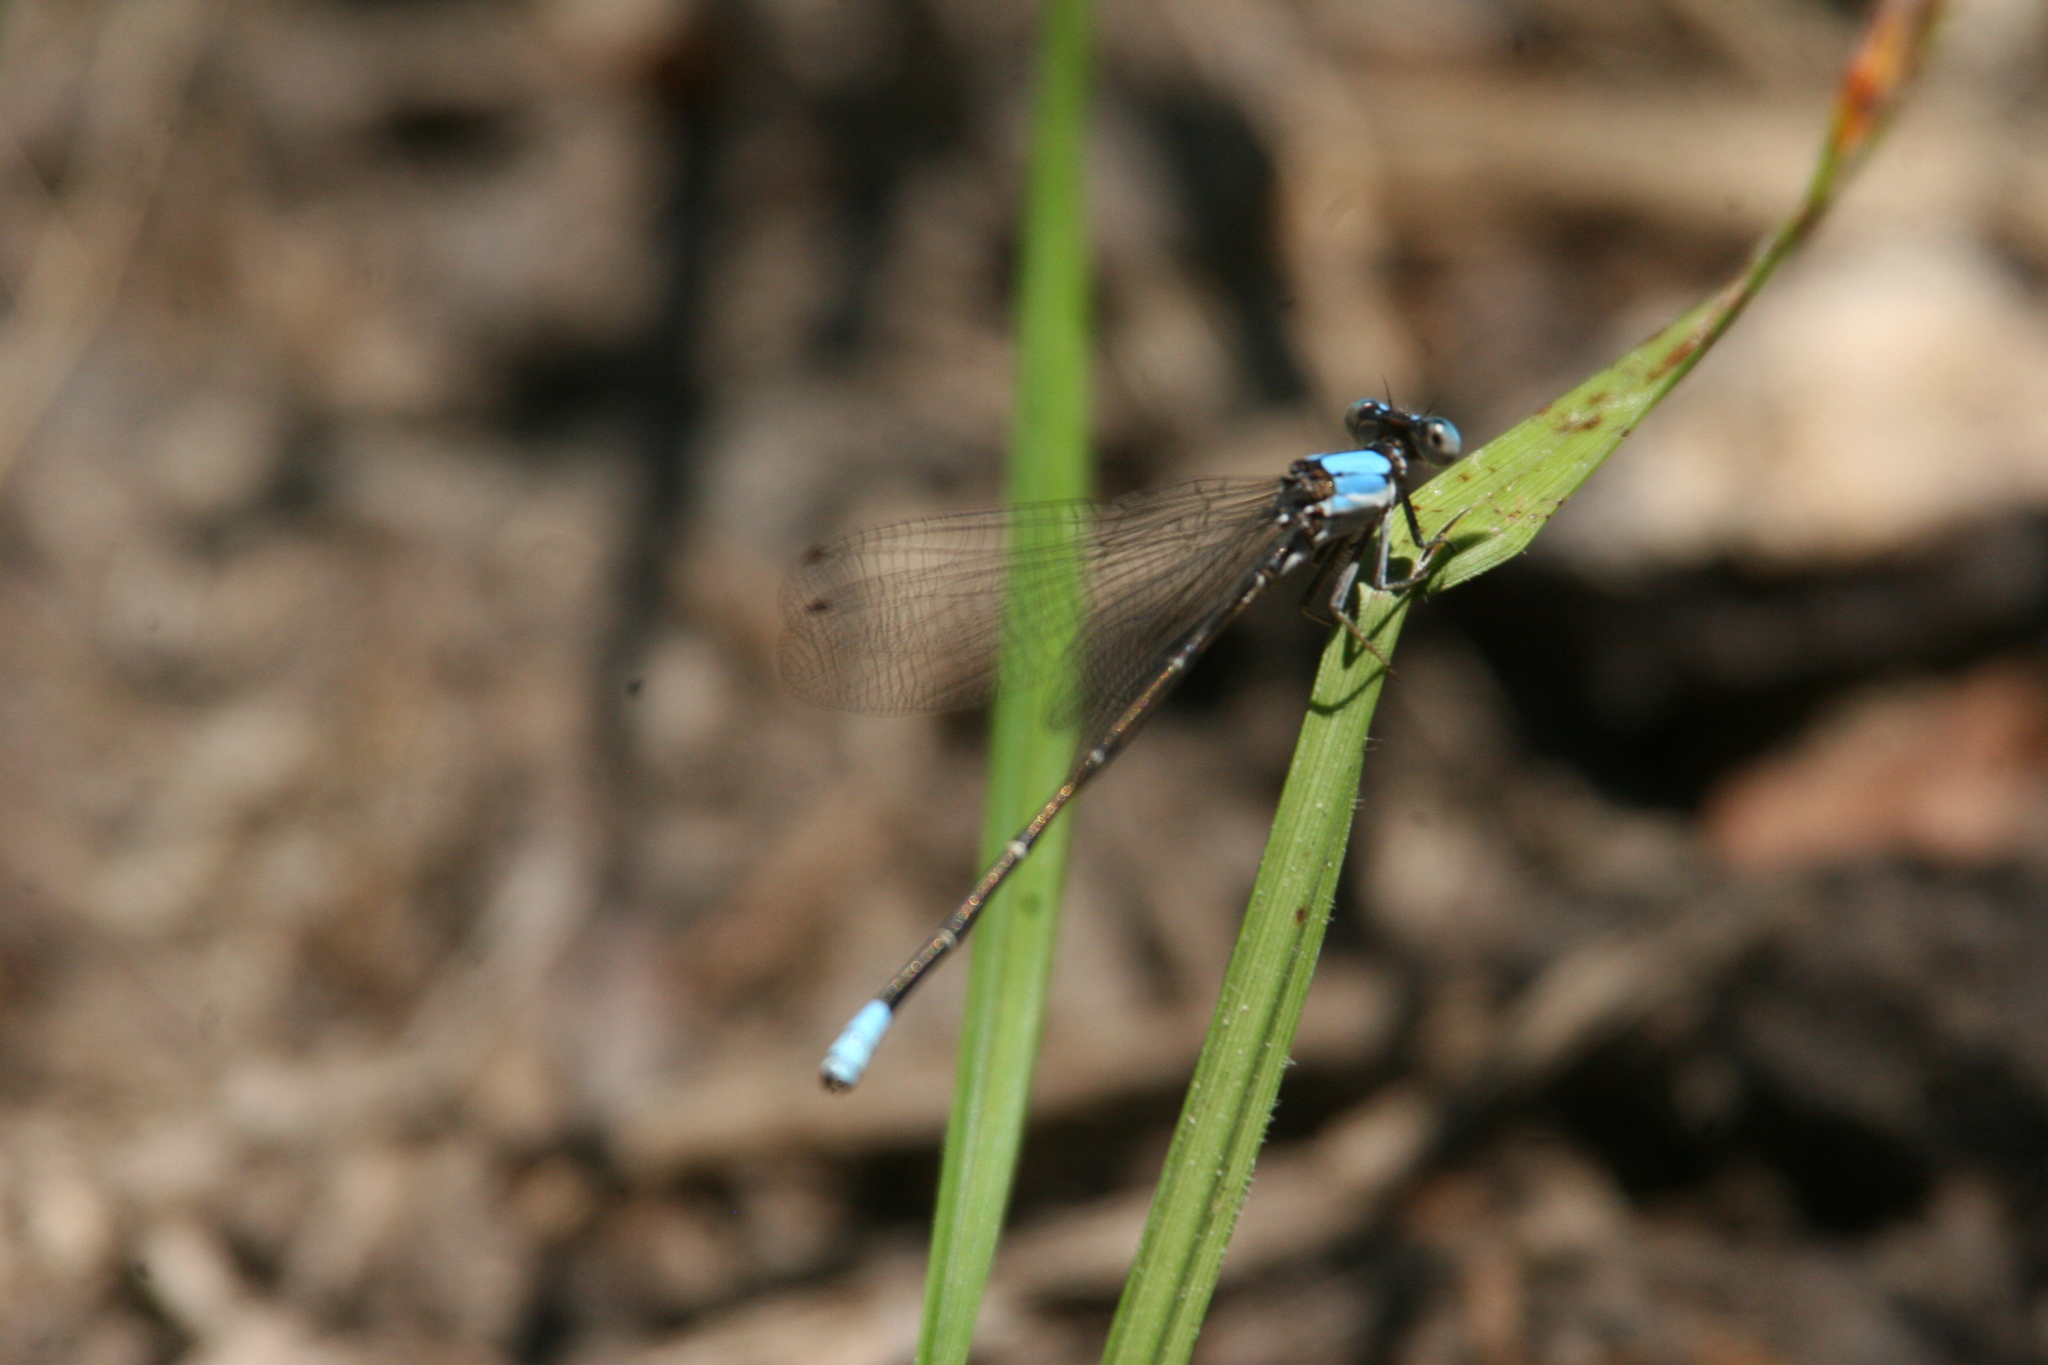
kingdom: Animalia
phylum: Arthropoda
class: Insecta
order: Odonata
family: Coenagrionidae
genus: Argia
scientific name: Argia apicalis
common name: Blue-fronted dancer
